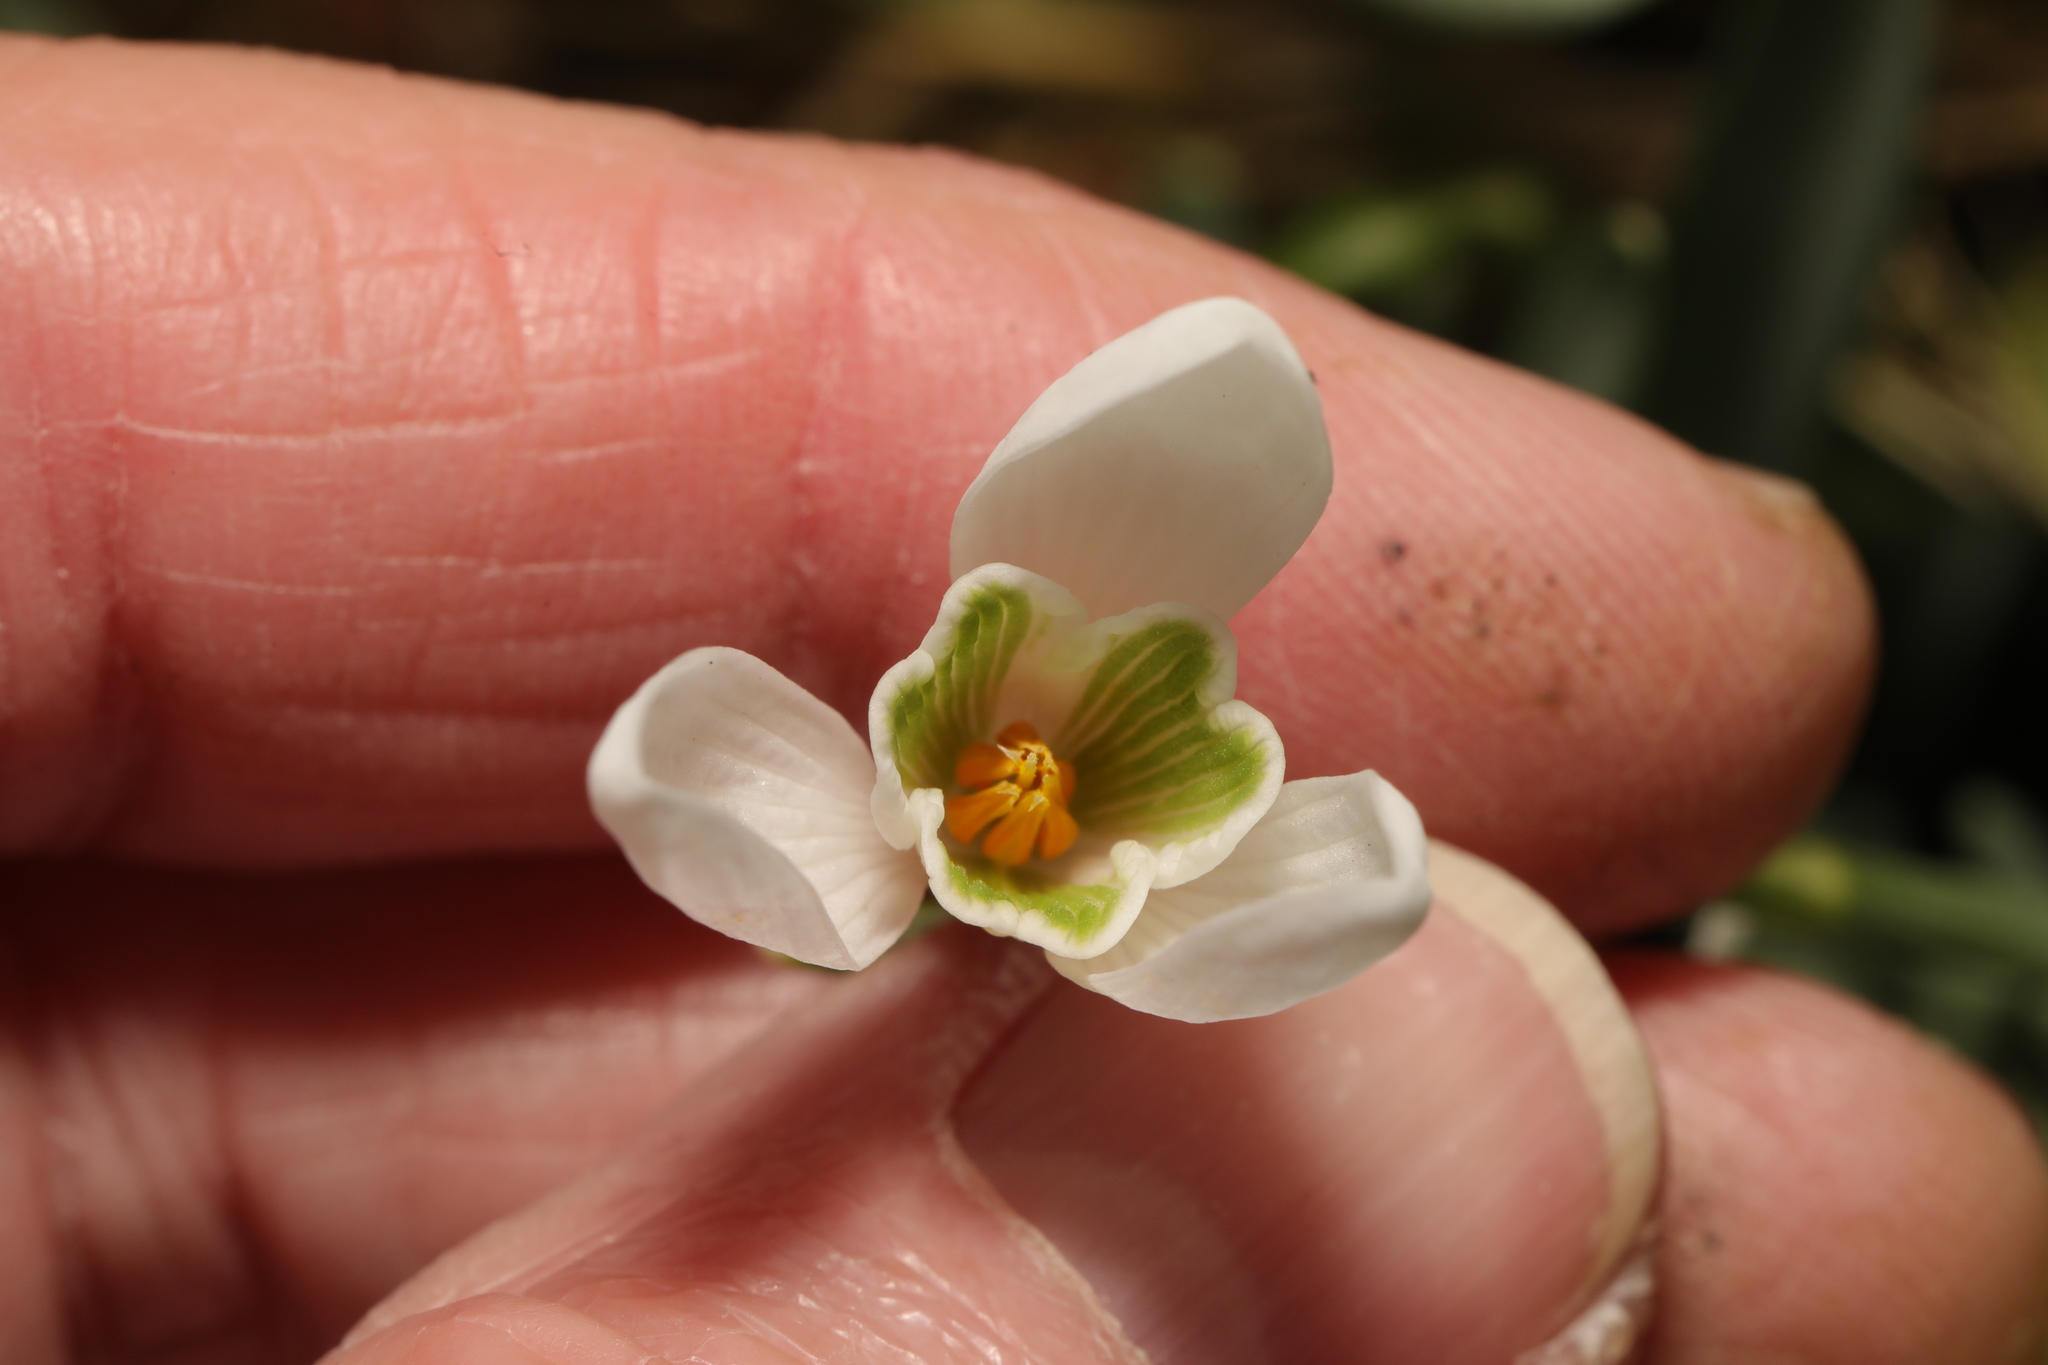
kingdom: Plantae
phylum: Tracheophyta
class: Liliopsida
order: Asparagales
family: Amaryllidaceae
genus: Galanthus
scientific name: Galanthus nivalis
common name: Snowdrop
